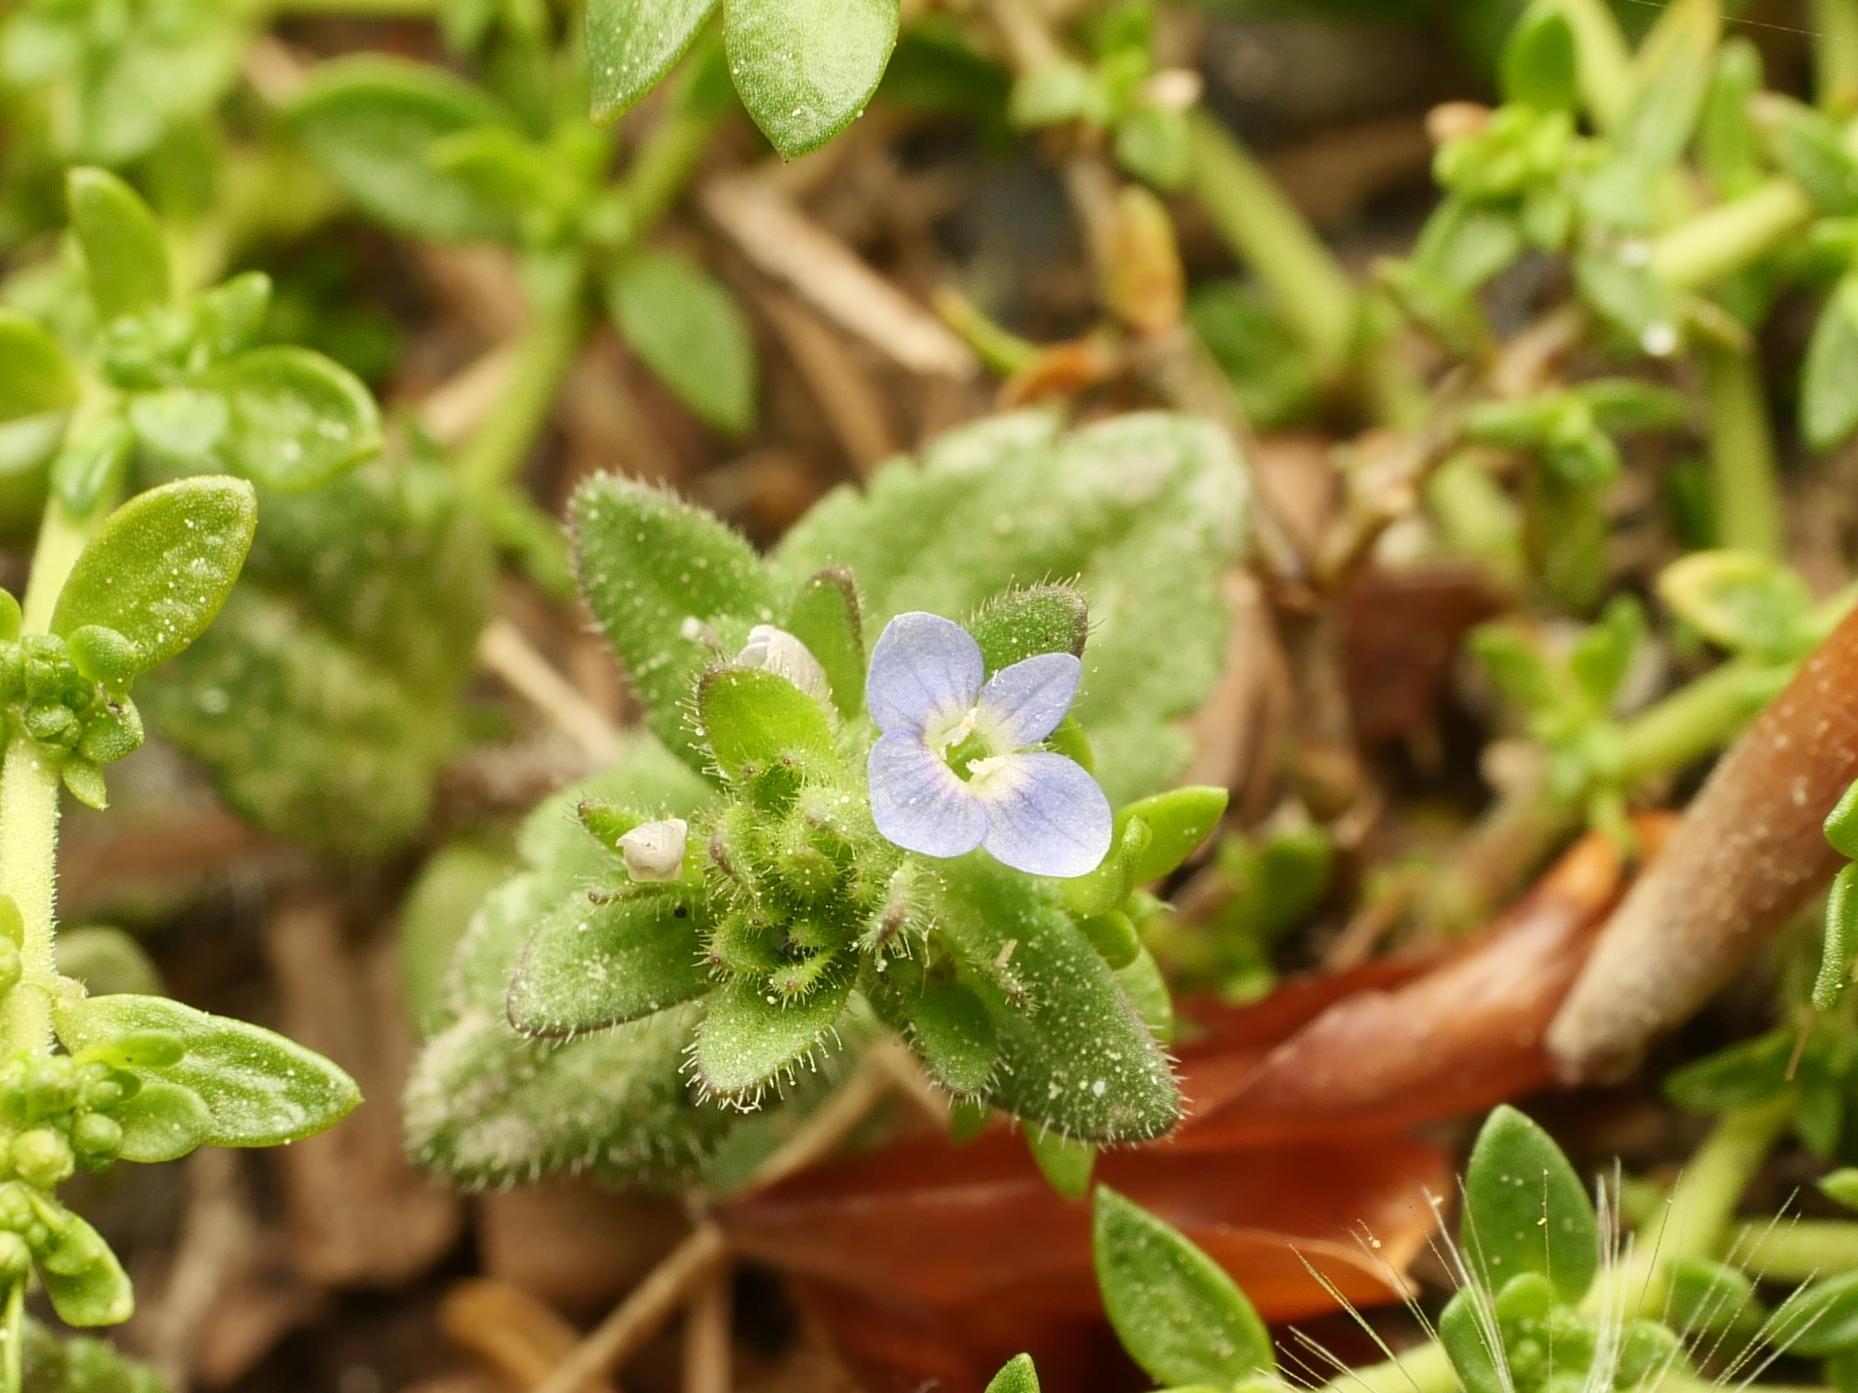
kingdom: Plantae
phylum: Tracheophyta
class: Magnoliopsida
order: Lamiales
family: Plantaginaceae
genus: Veronica
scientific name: Veronica arvensis
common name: Corn speedwell
